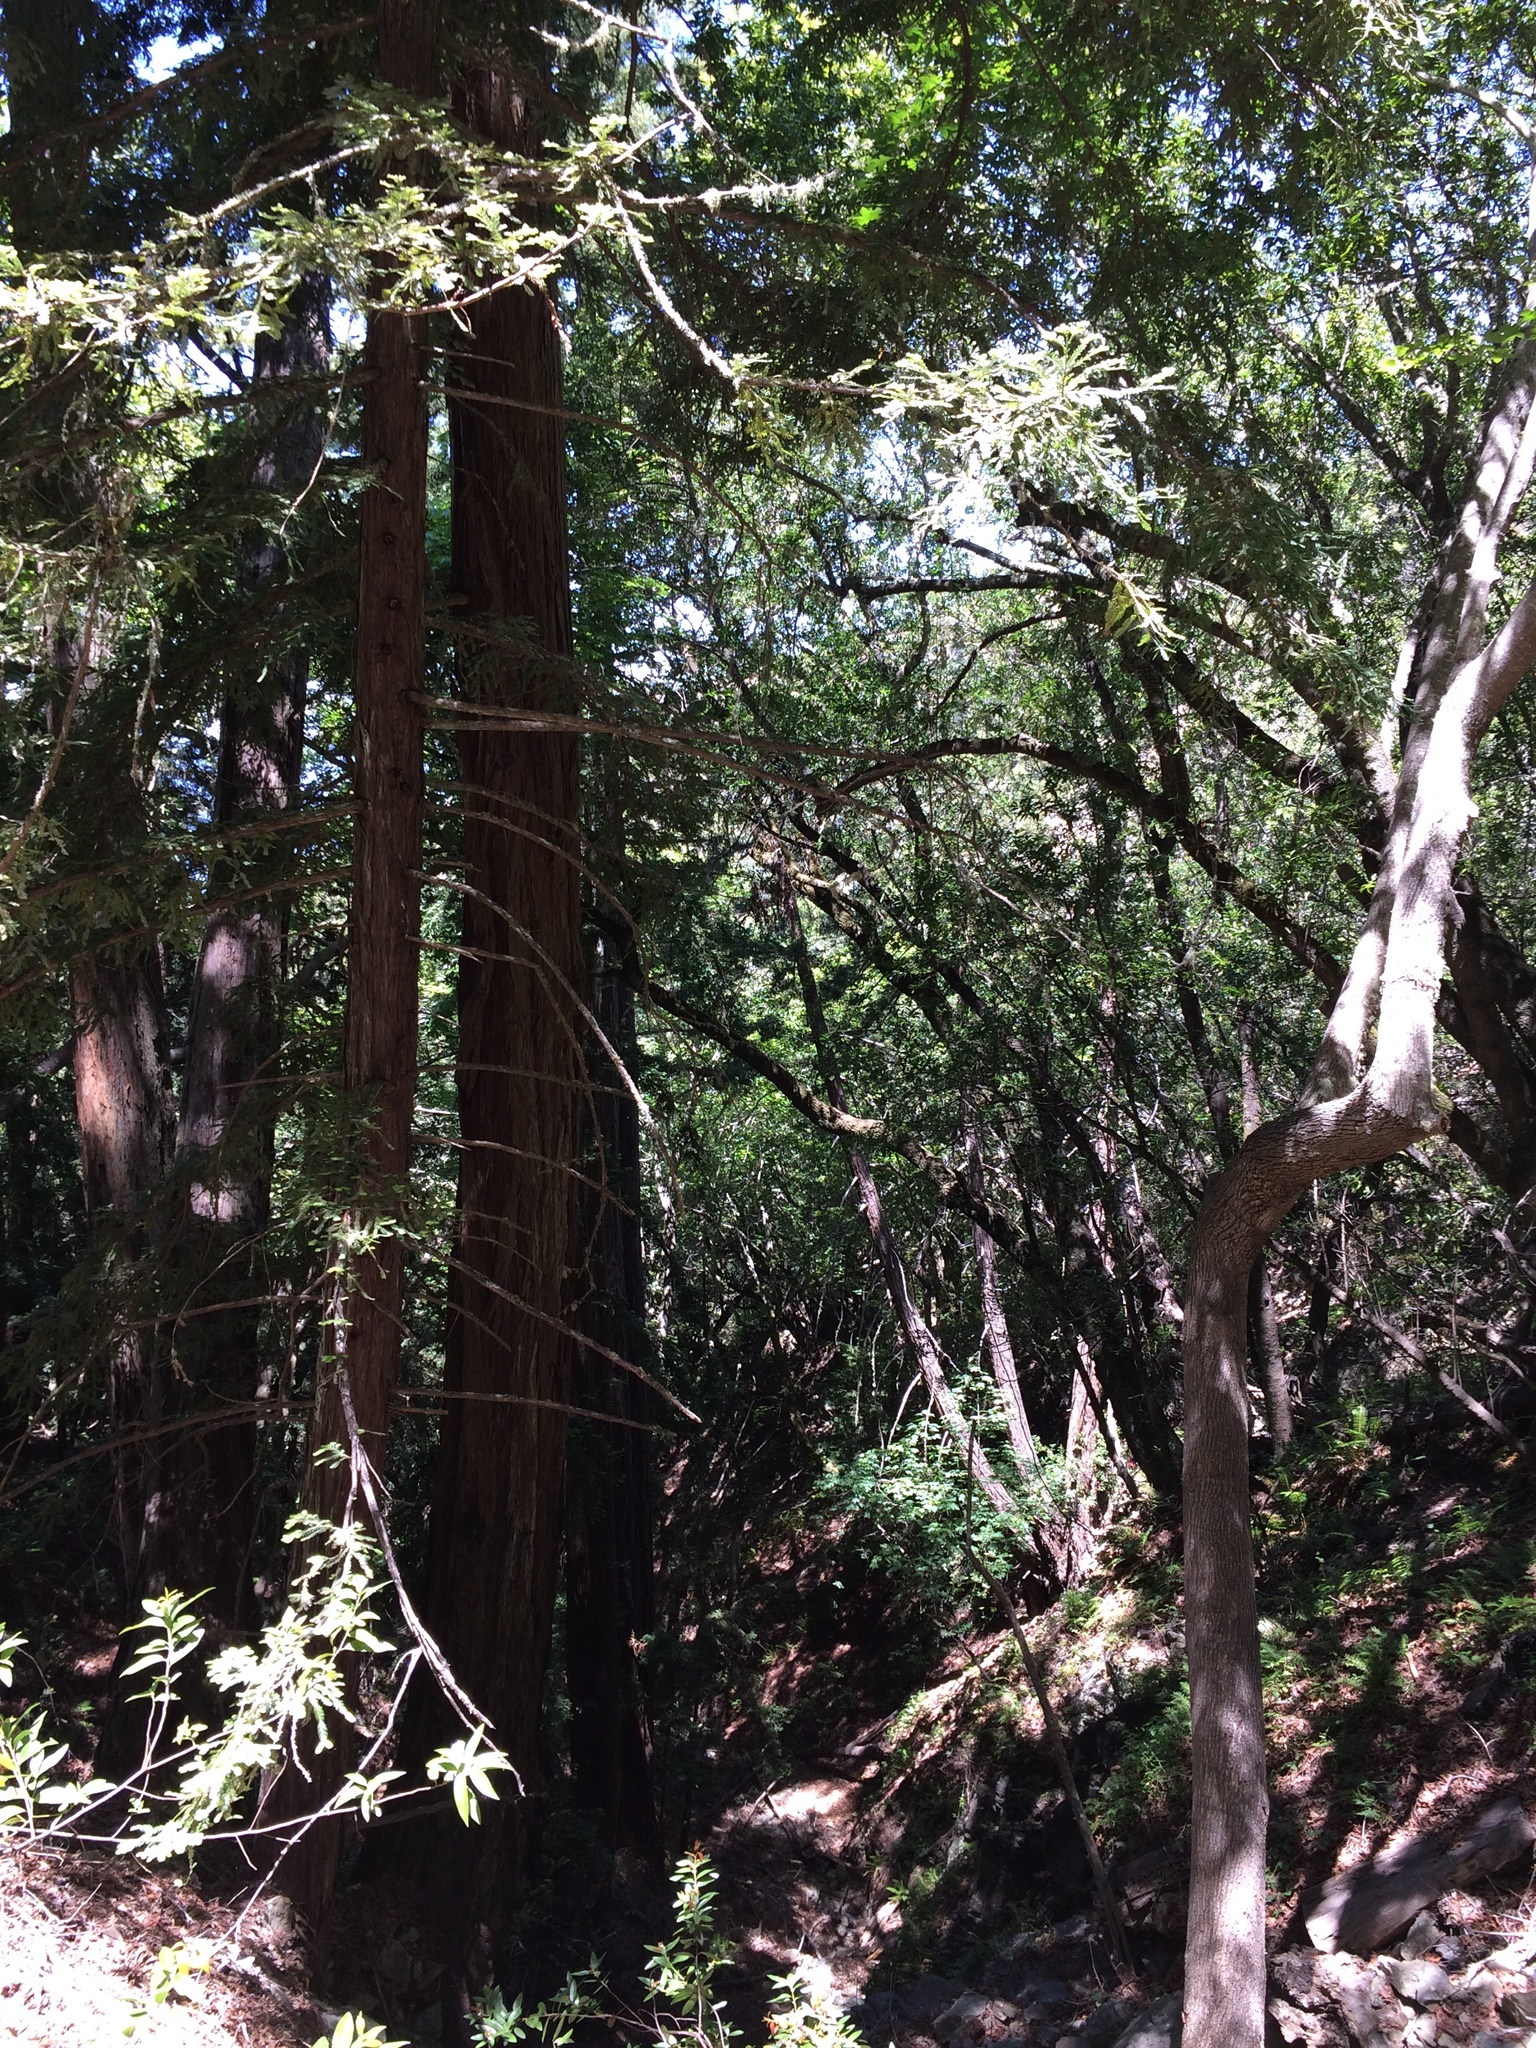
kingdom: Plantae
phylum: Tracheophyta
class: Pinopsida
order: Pinales
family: Cupressaceae
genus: Sequoia
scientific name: Sequoia sempervirens
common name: Coast redwood
